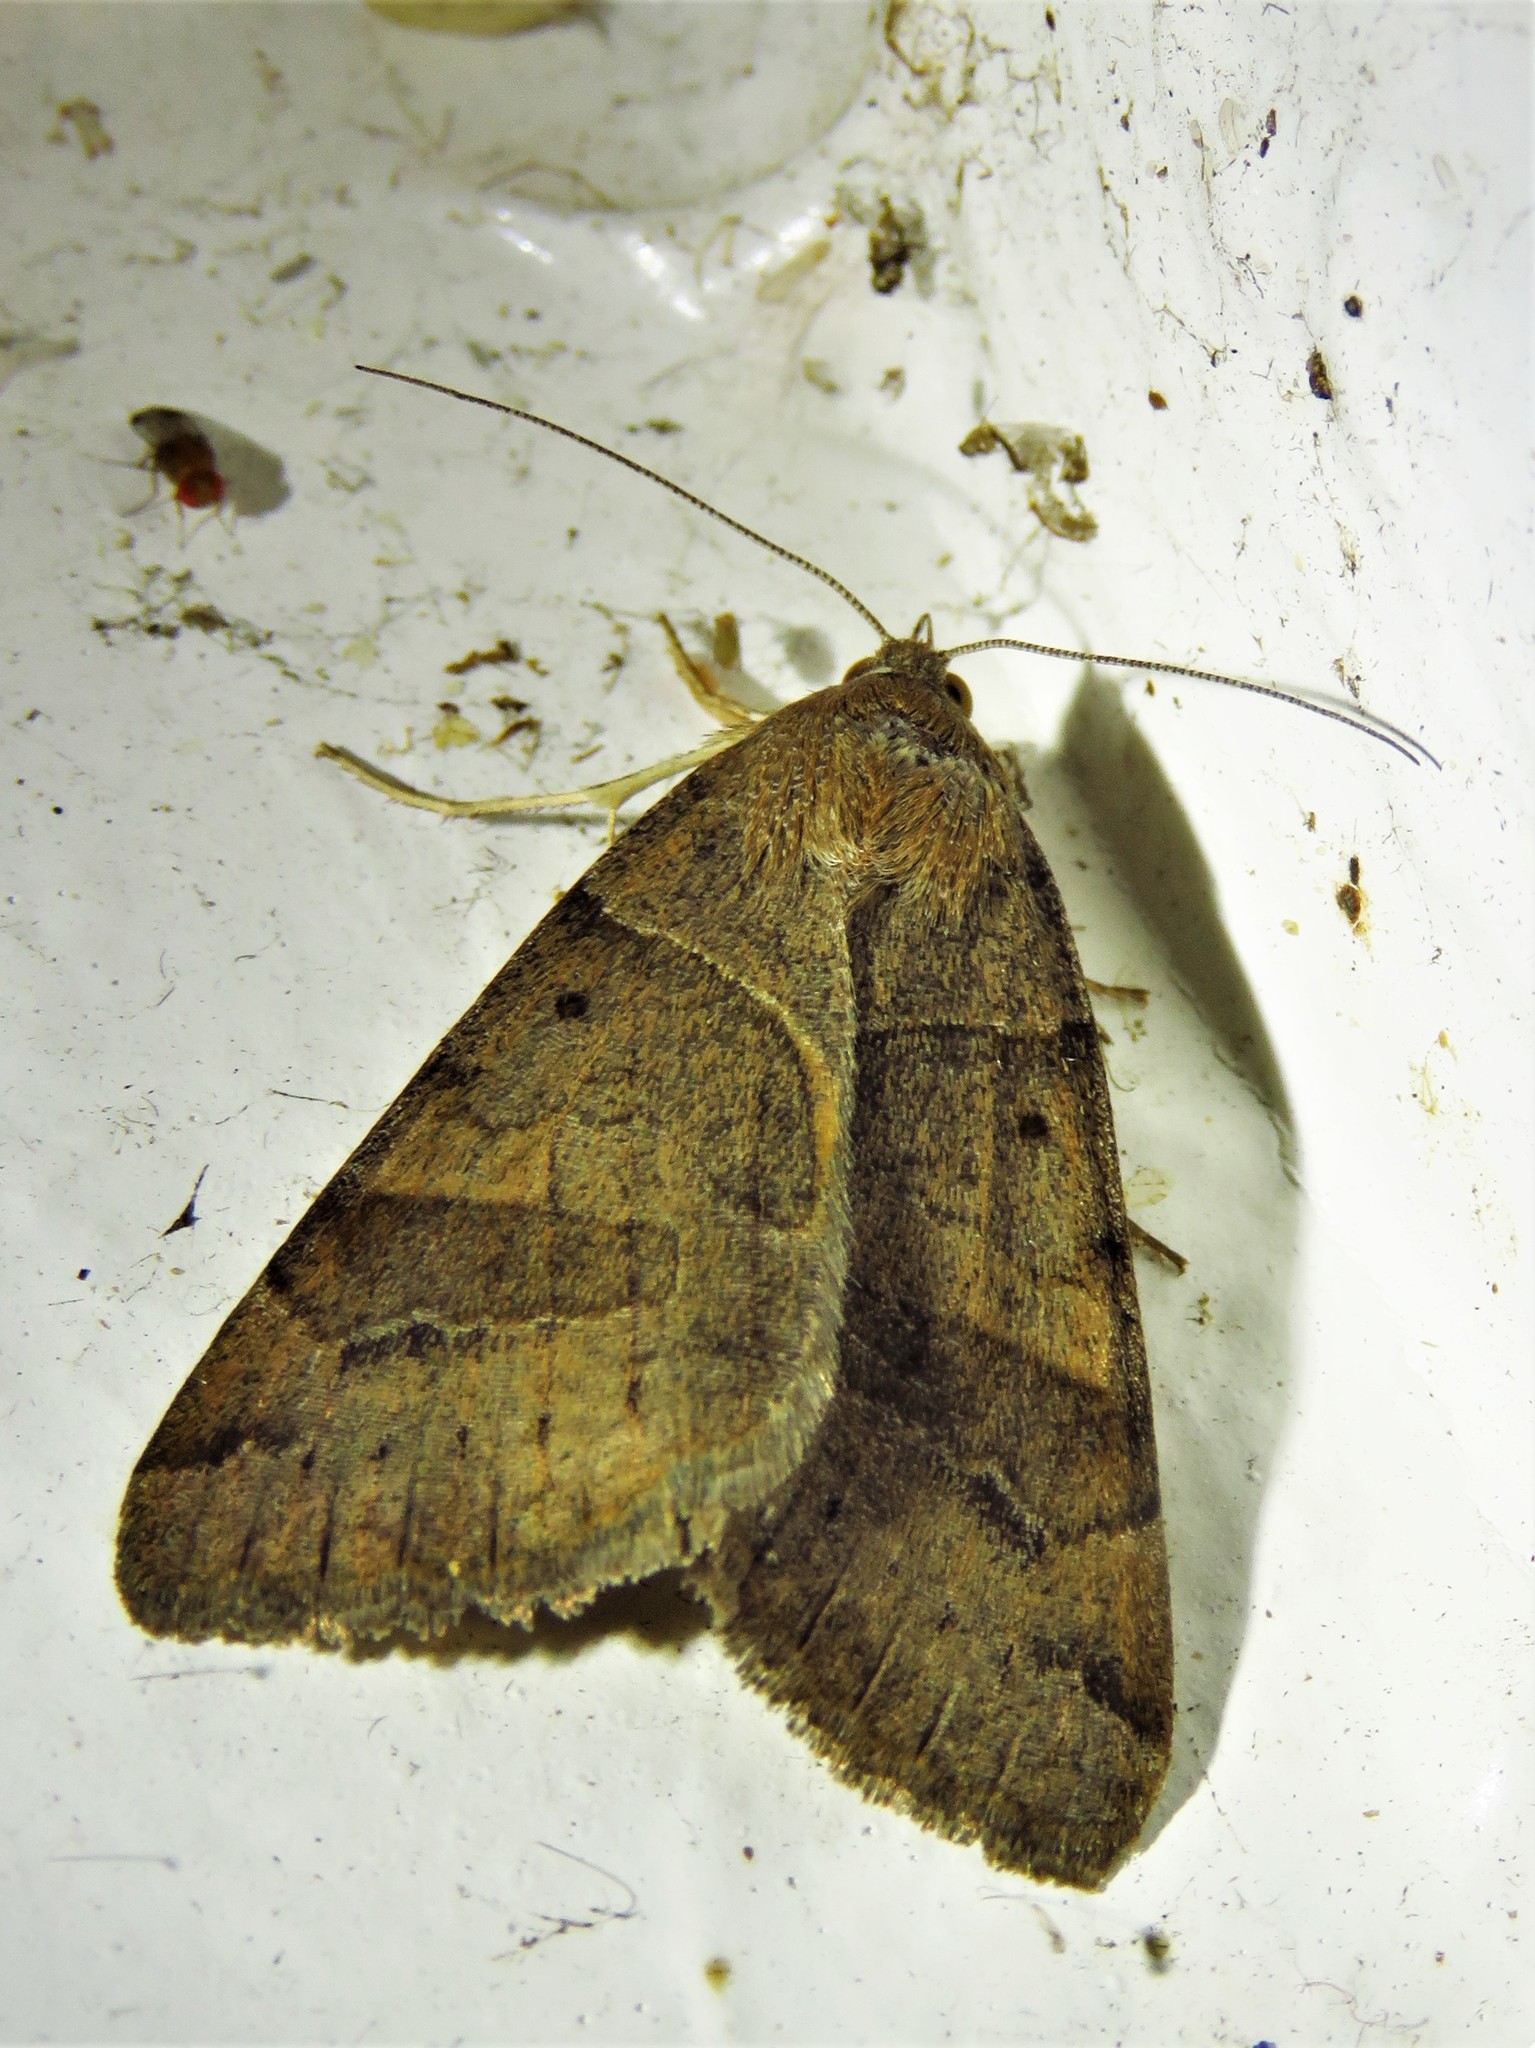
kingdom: Animalia
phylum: Arthropoda
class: Insecta
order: Lepidoptera
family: Erebidae
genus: Caenurgina
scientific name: Caenurgina erechtea
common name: Forage looper moth
